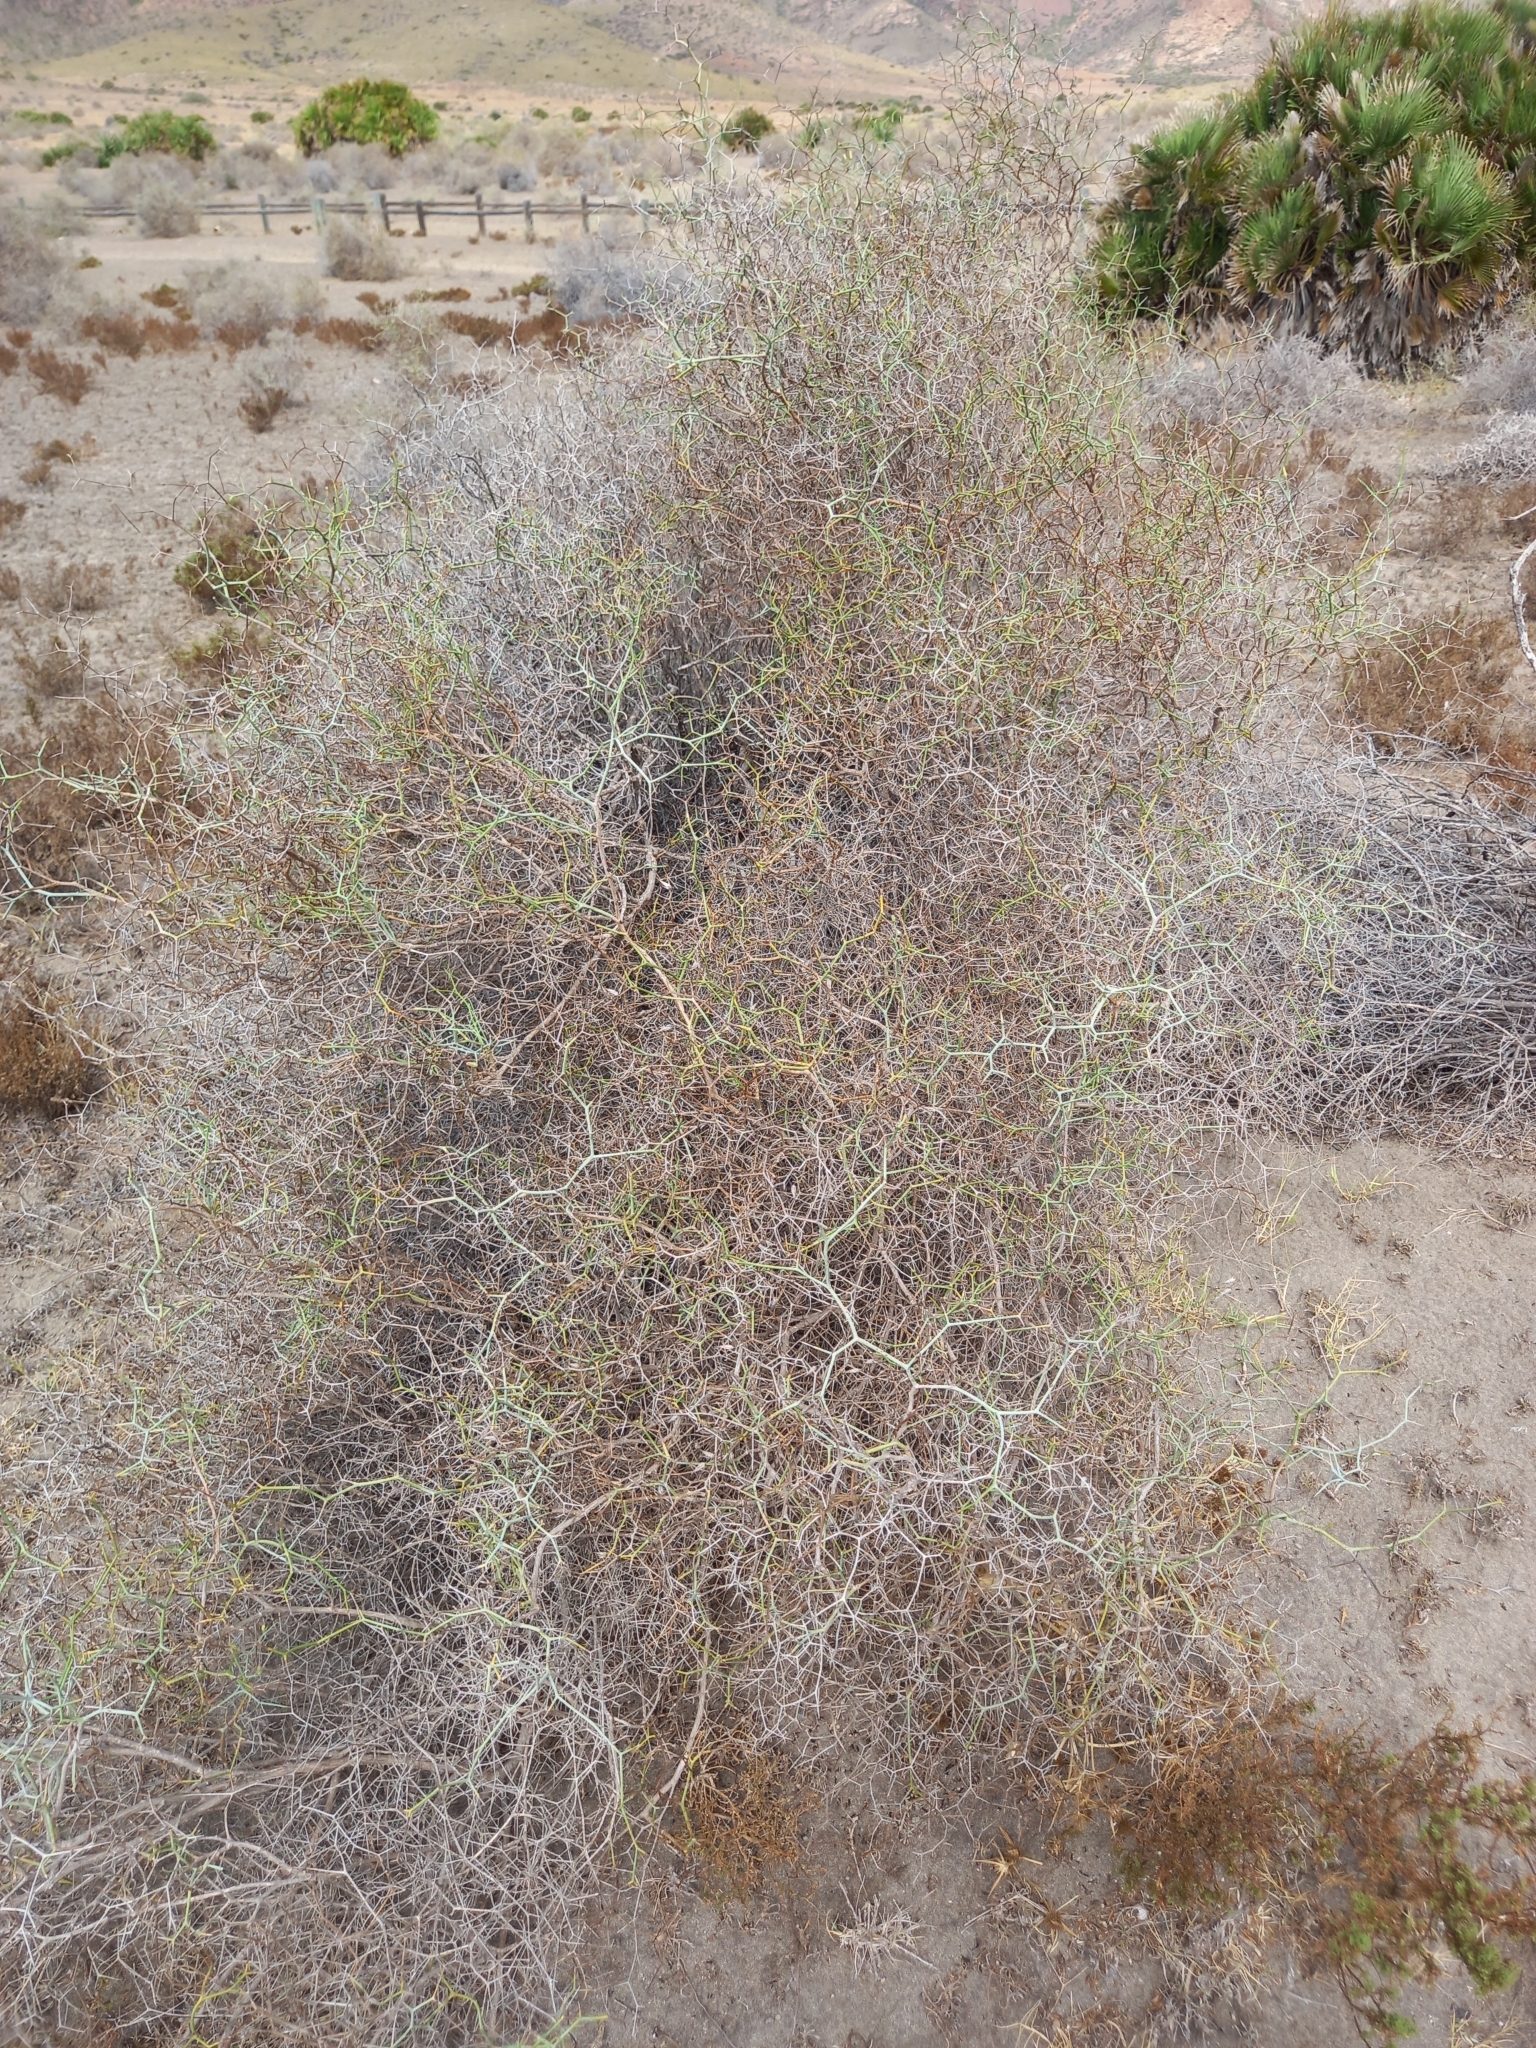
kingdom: Plantae
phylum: Tracheophyta
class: Magnoliopsida
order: Asterales
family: Asteraceae
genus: Launaea
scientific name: Launaea arborescens
